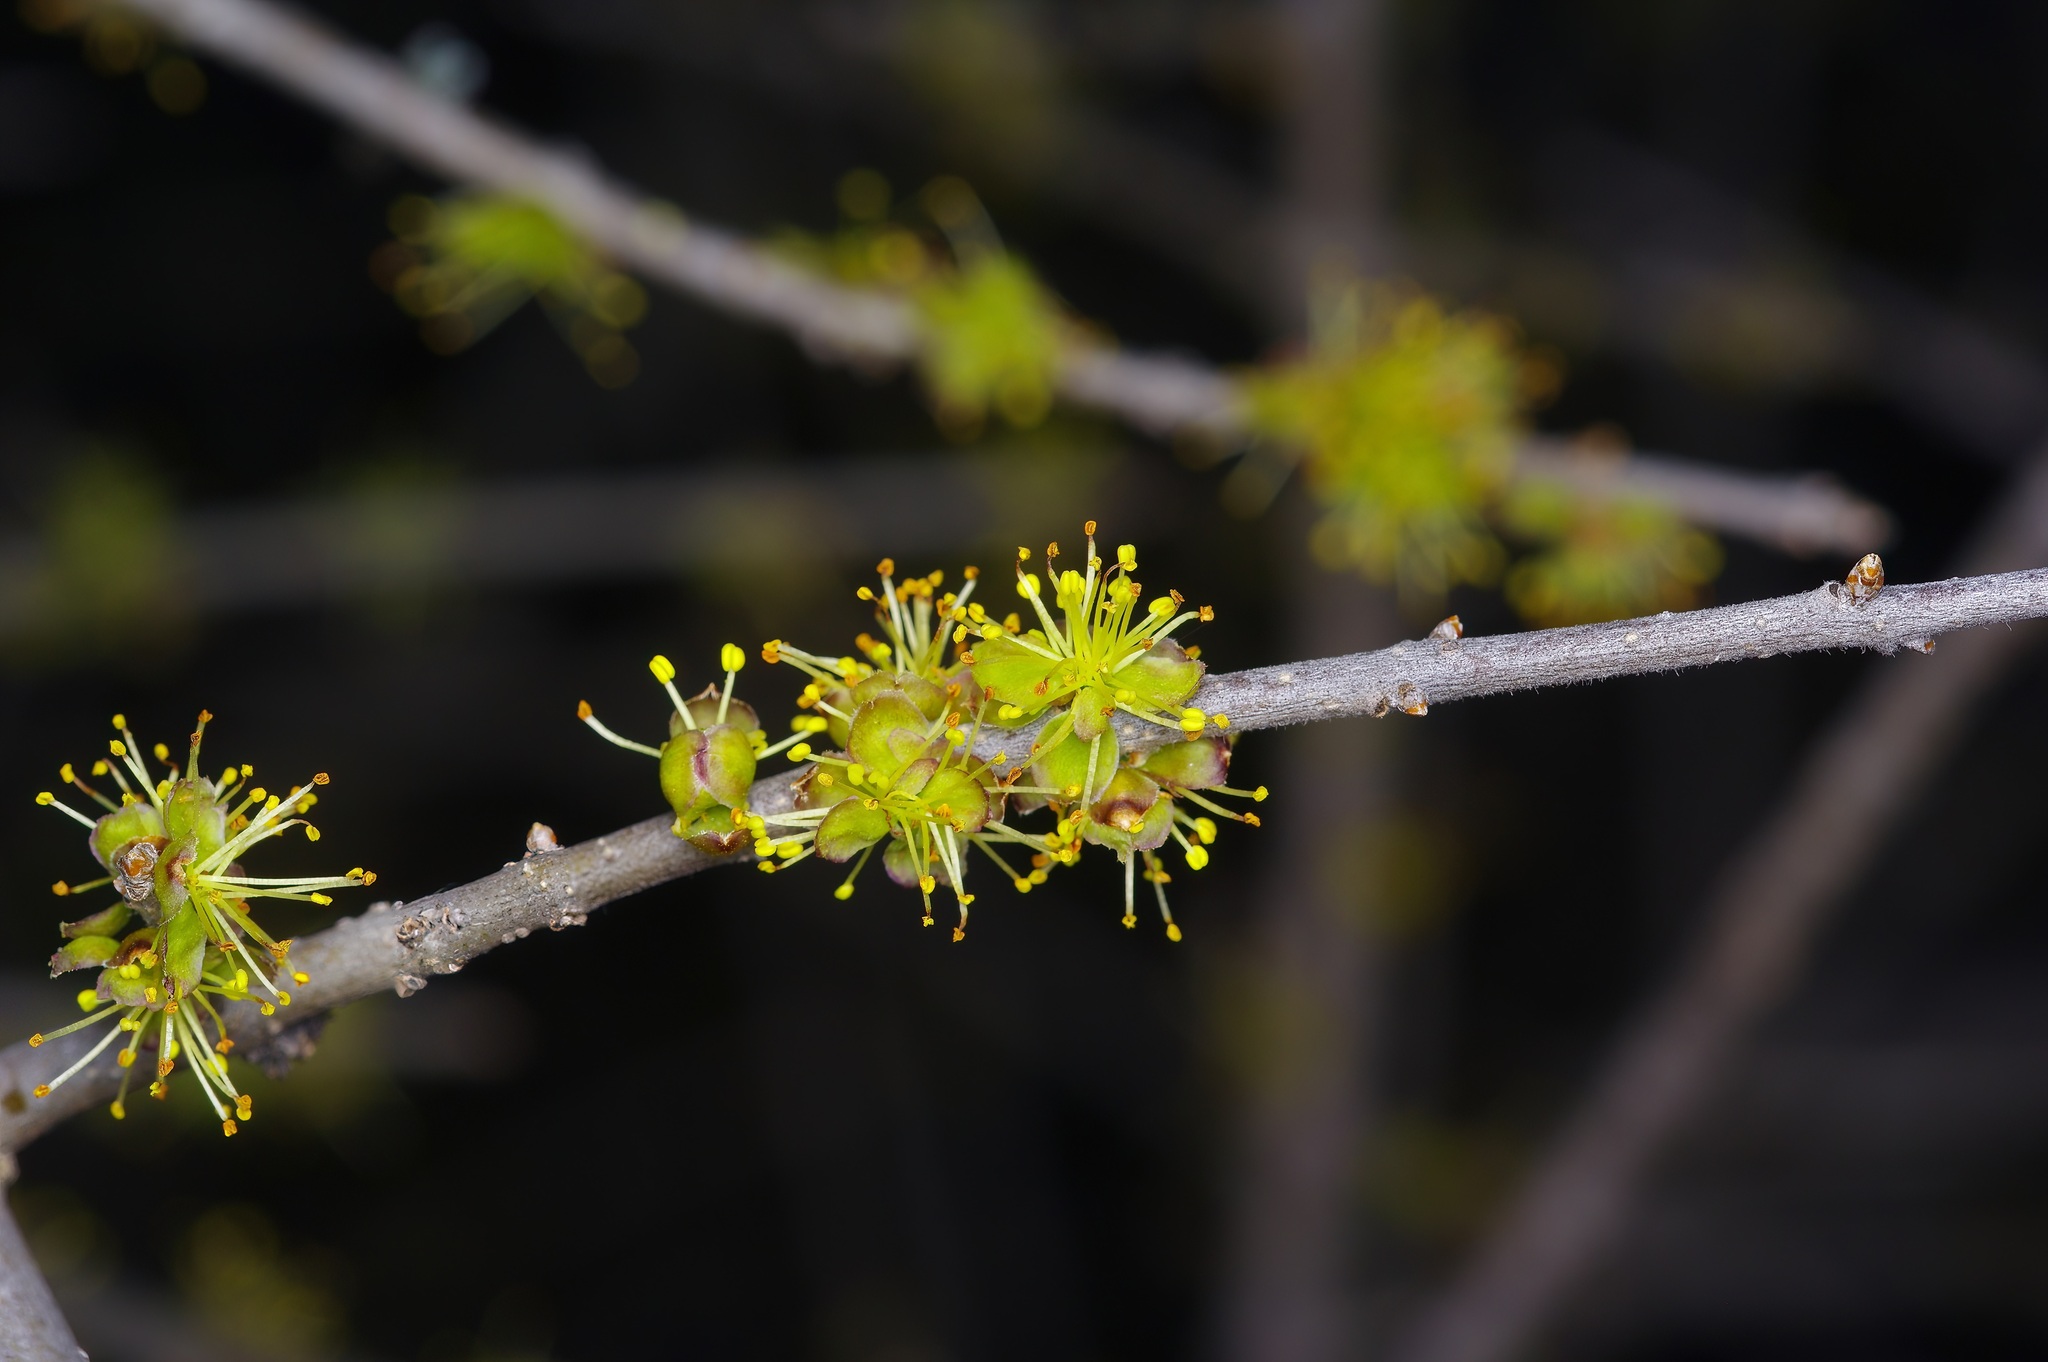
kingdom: Plantae
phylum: Tracheophyta
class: Magnoliopsida
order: Lamiales
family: Oleaceae
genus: Forestiera
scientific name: Forestiera pubescens
